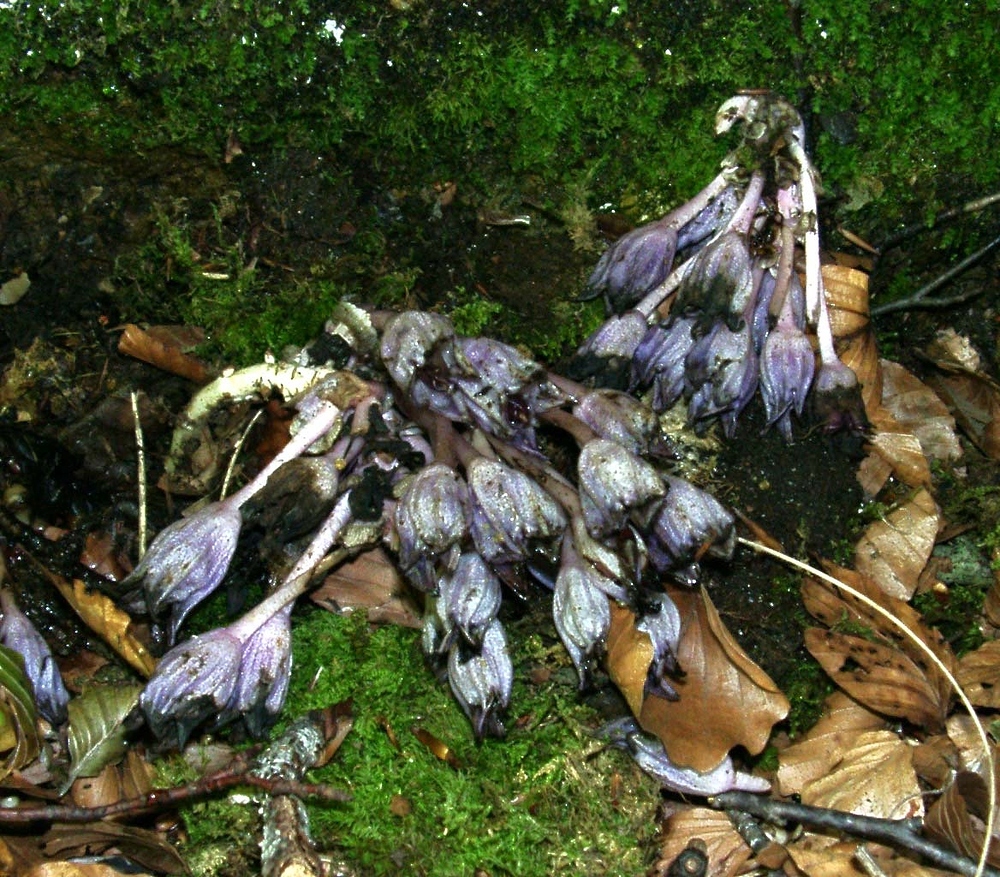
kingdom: Plantae
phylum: Tracheophyta
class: Magnoliopsida
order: Lamiales
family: Orobanchaceae
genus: Lathraea
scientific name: Lathraea clandestina
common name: Purple toothwort
